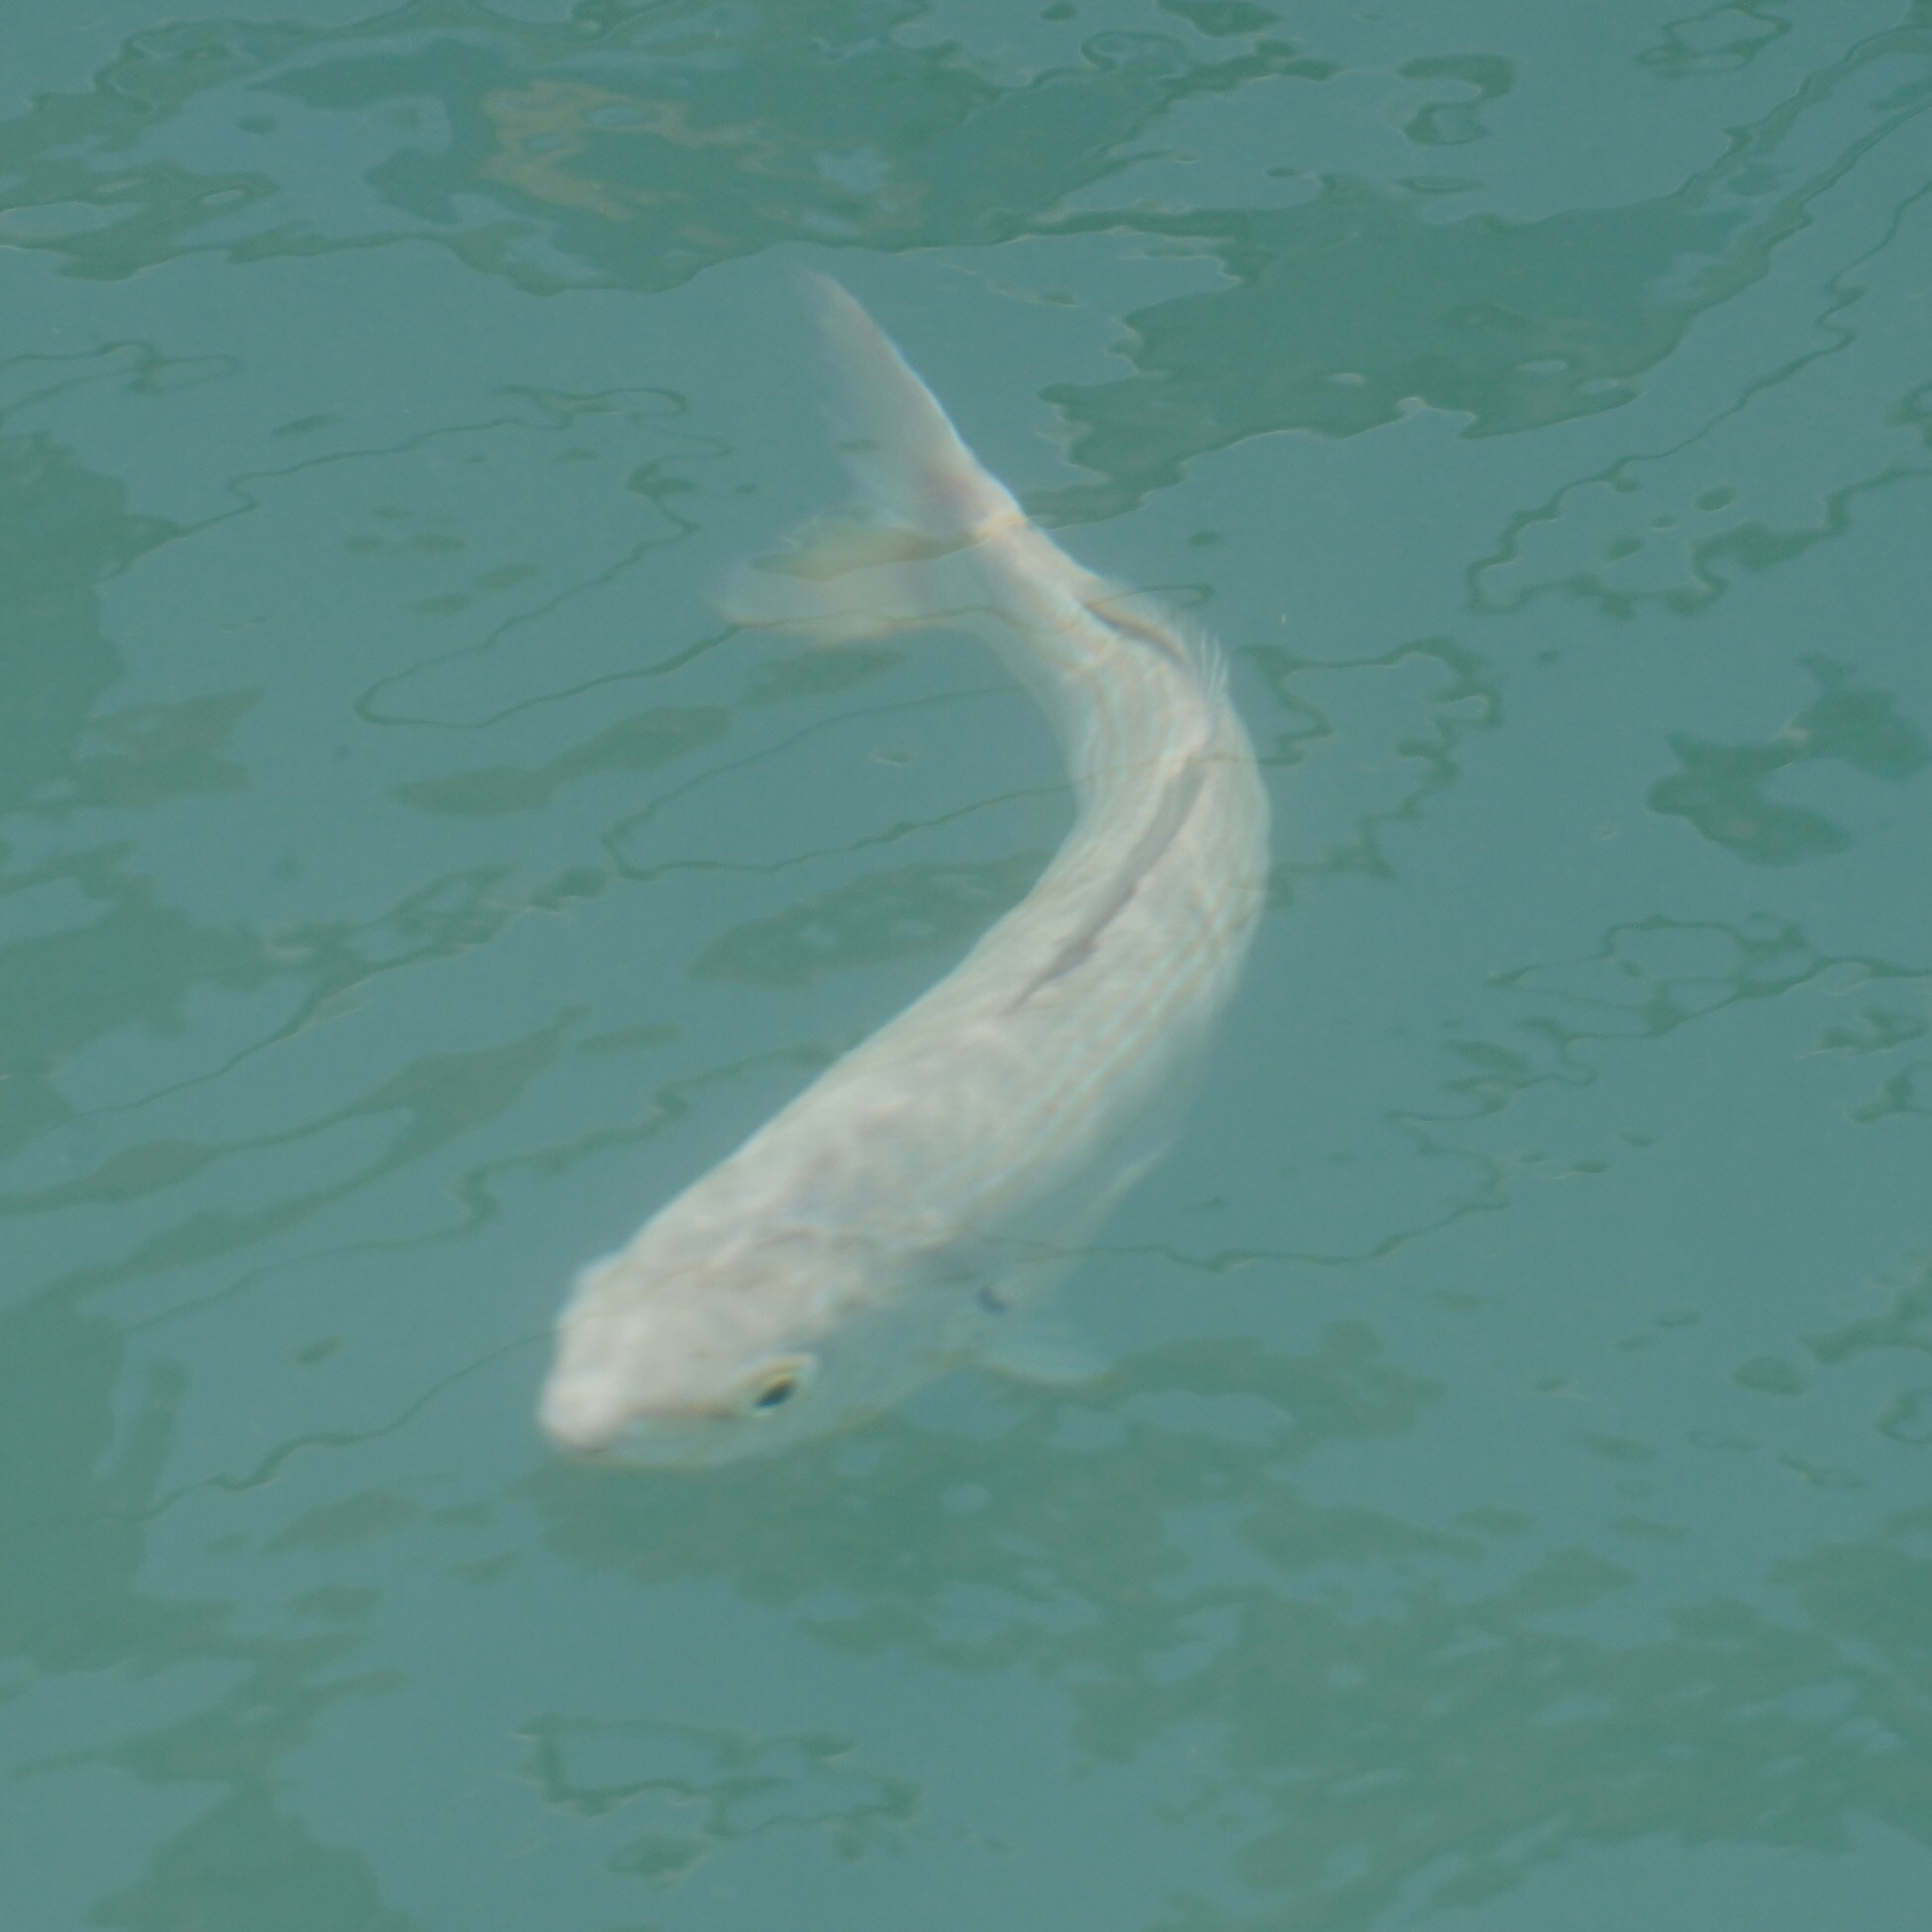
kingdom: Animalia
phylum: Chordata
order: Perciformes
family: Sparidae
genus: Sarpa
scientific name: Sarpa salpa
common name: Salema
